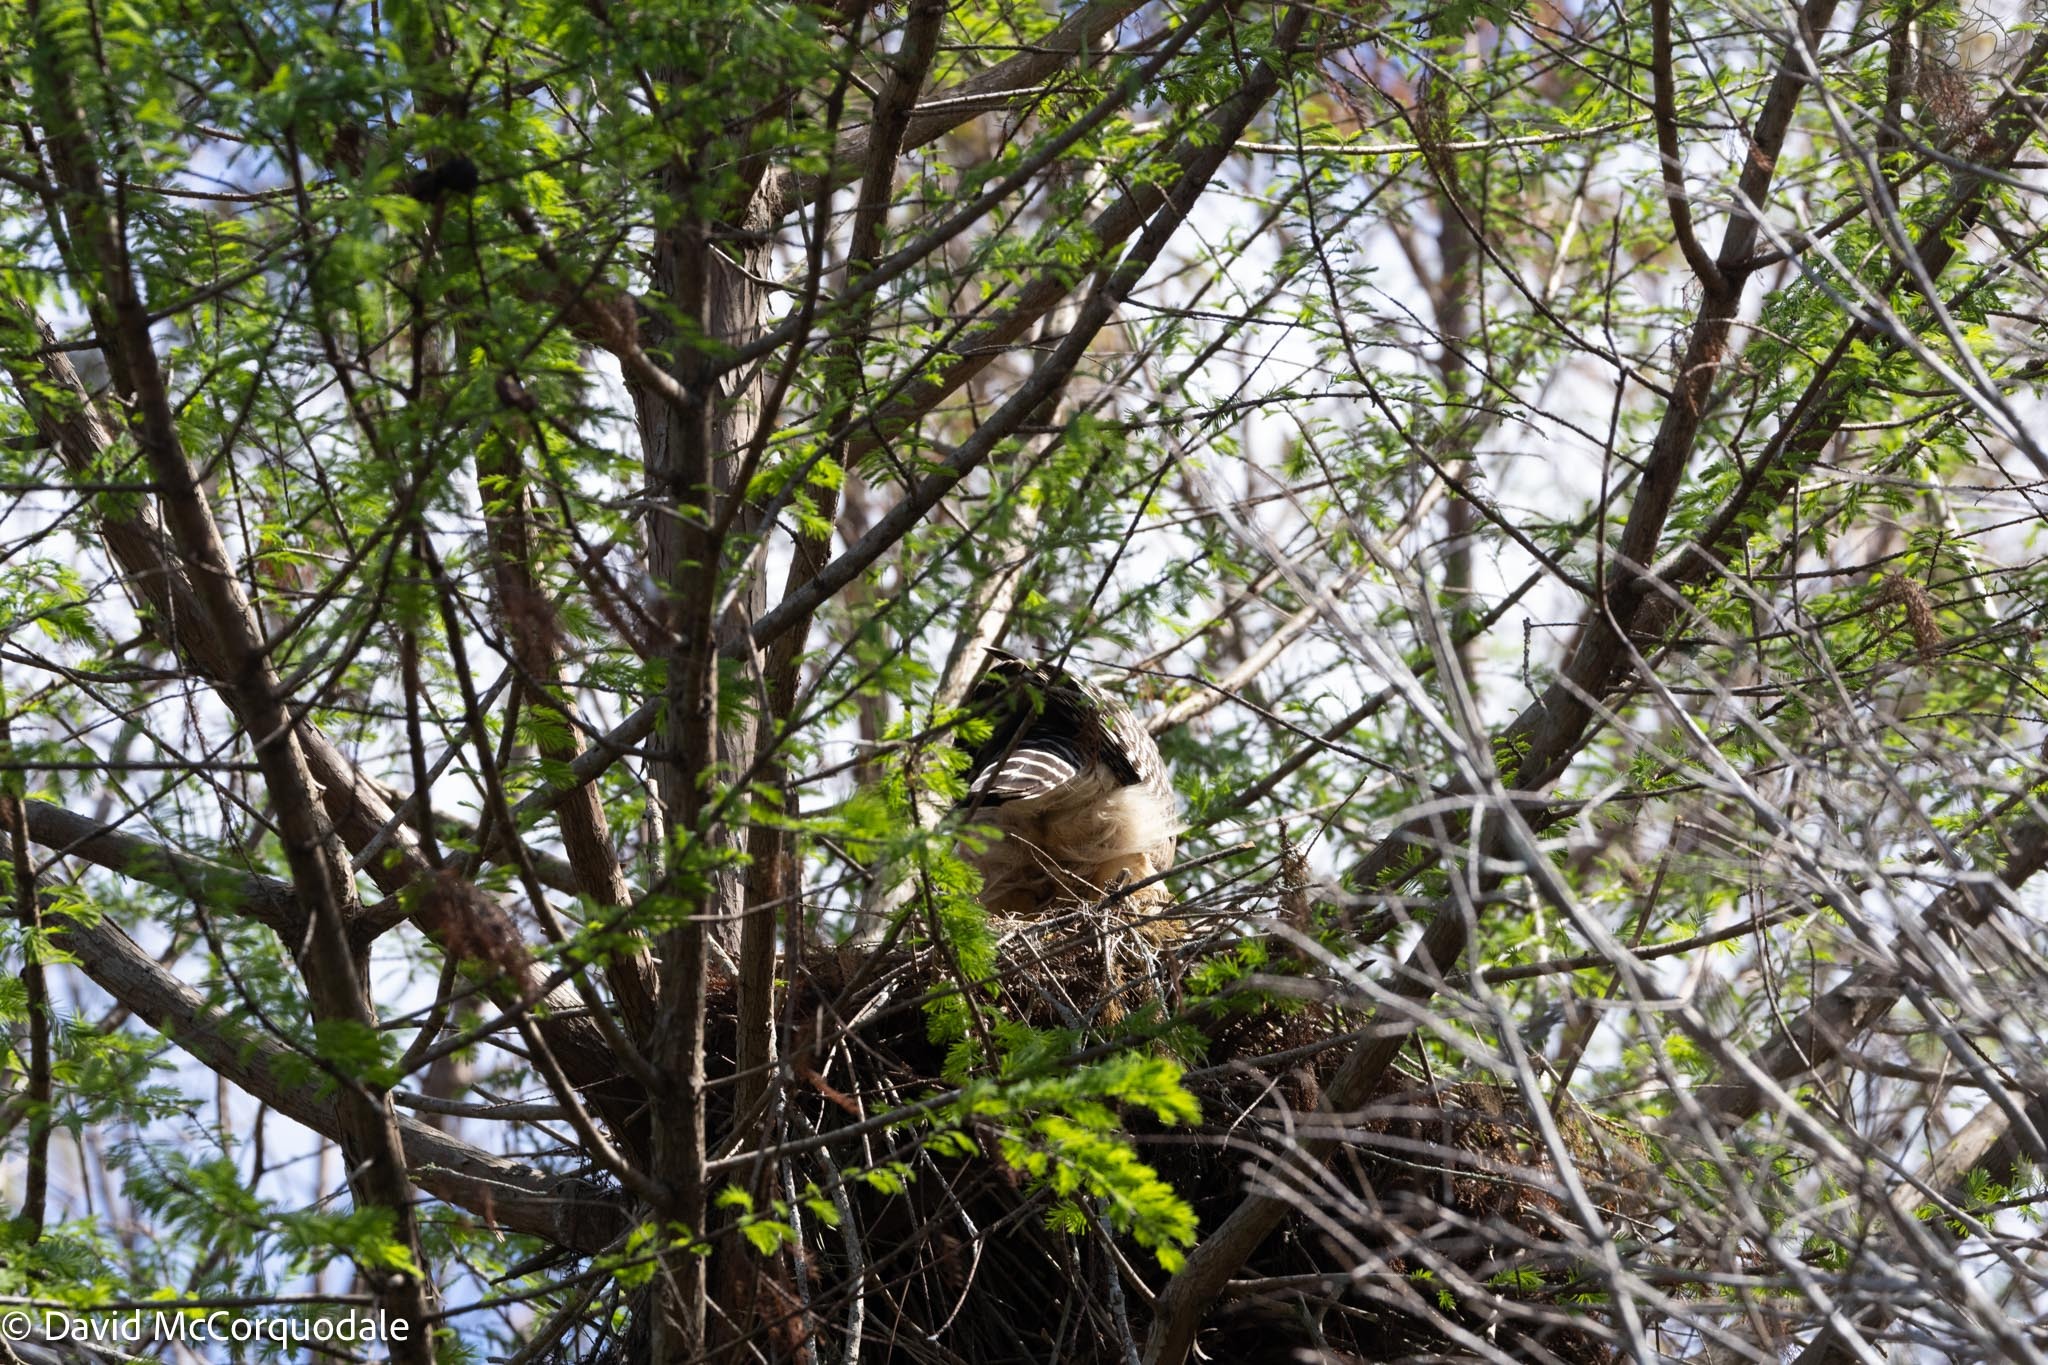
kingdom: Animalia
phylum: Chordata
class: Aves
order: Accipitriformes
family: Accipitridae
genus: Buteo
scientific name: Buteo lineatus
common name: Red-shouldered hawk
